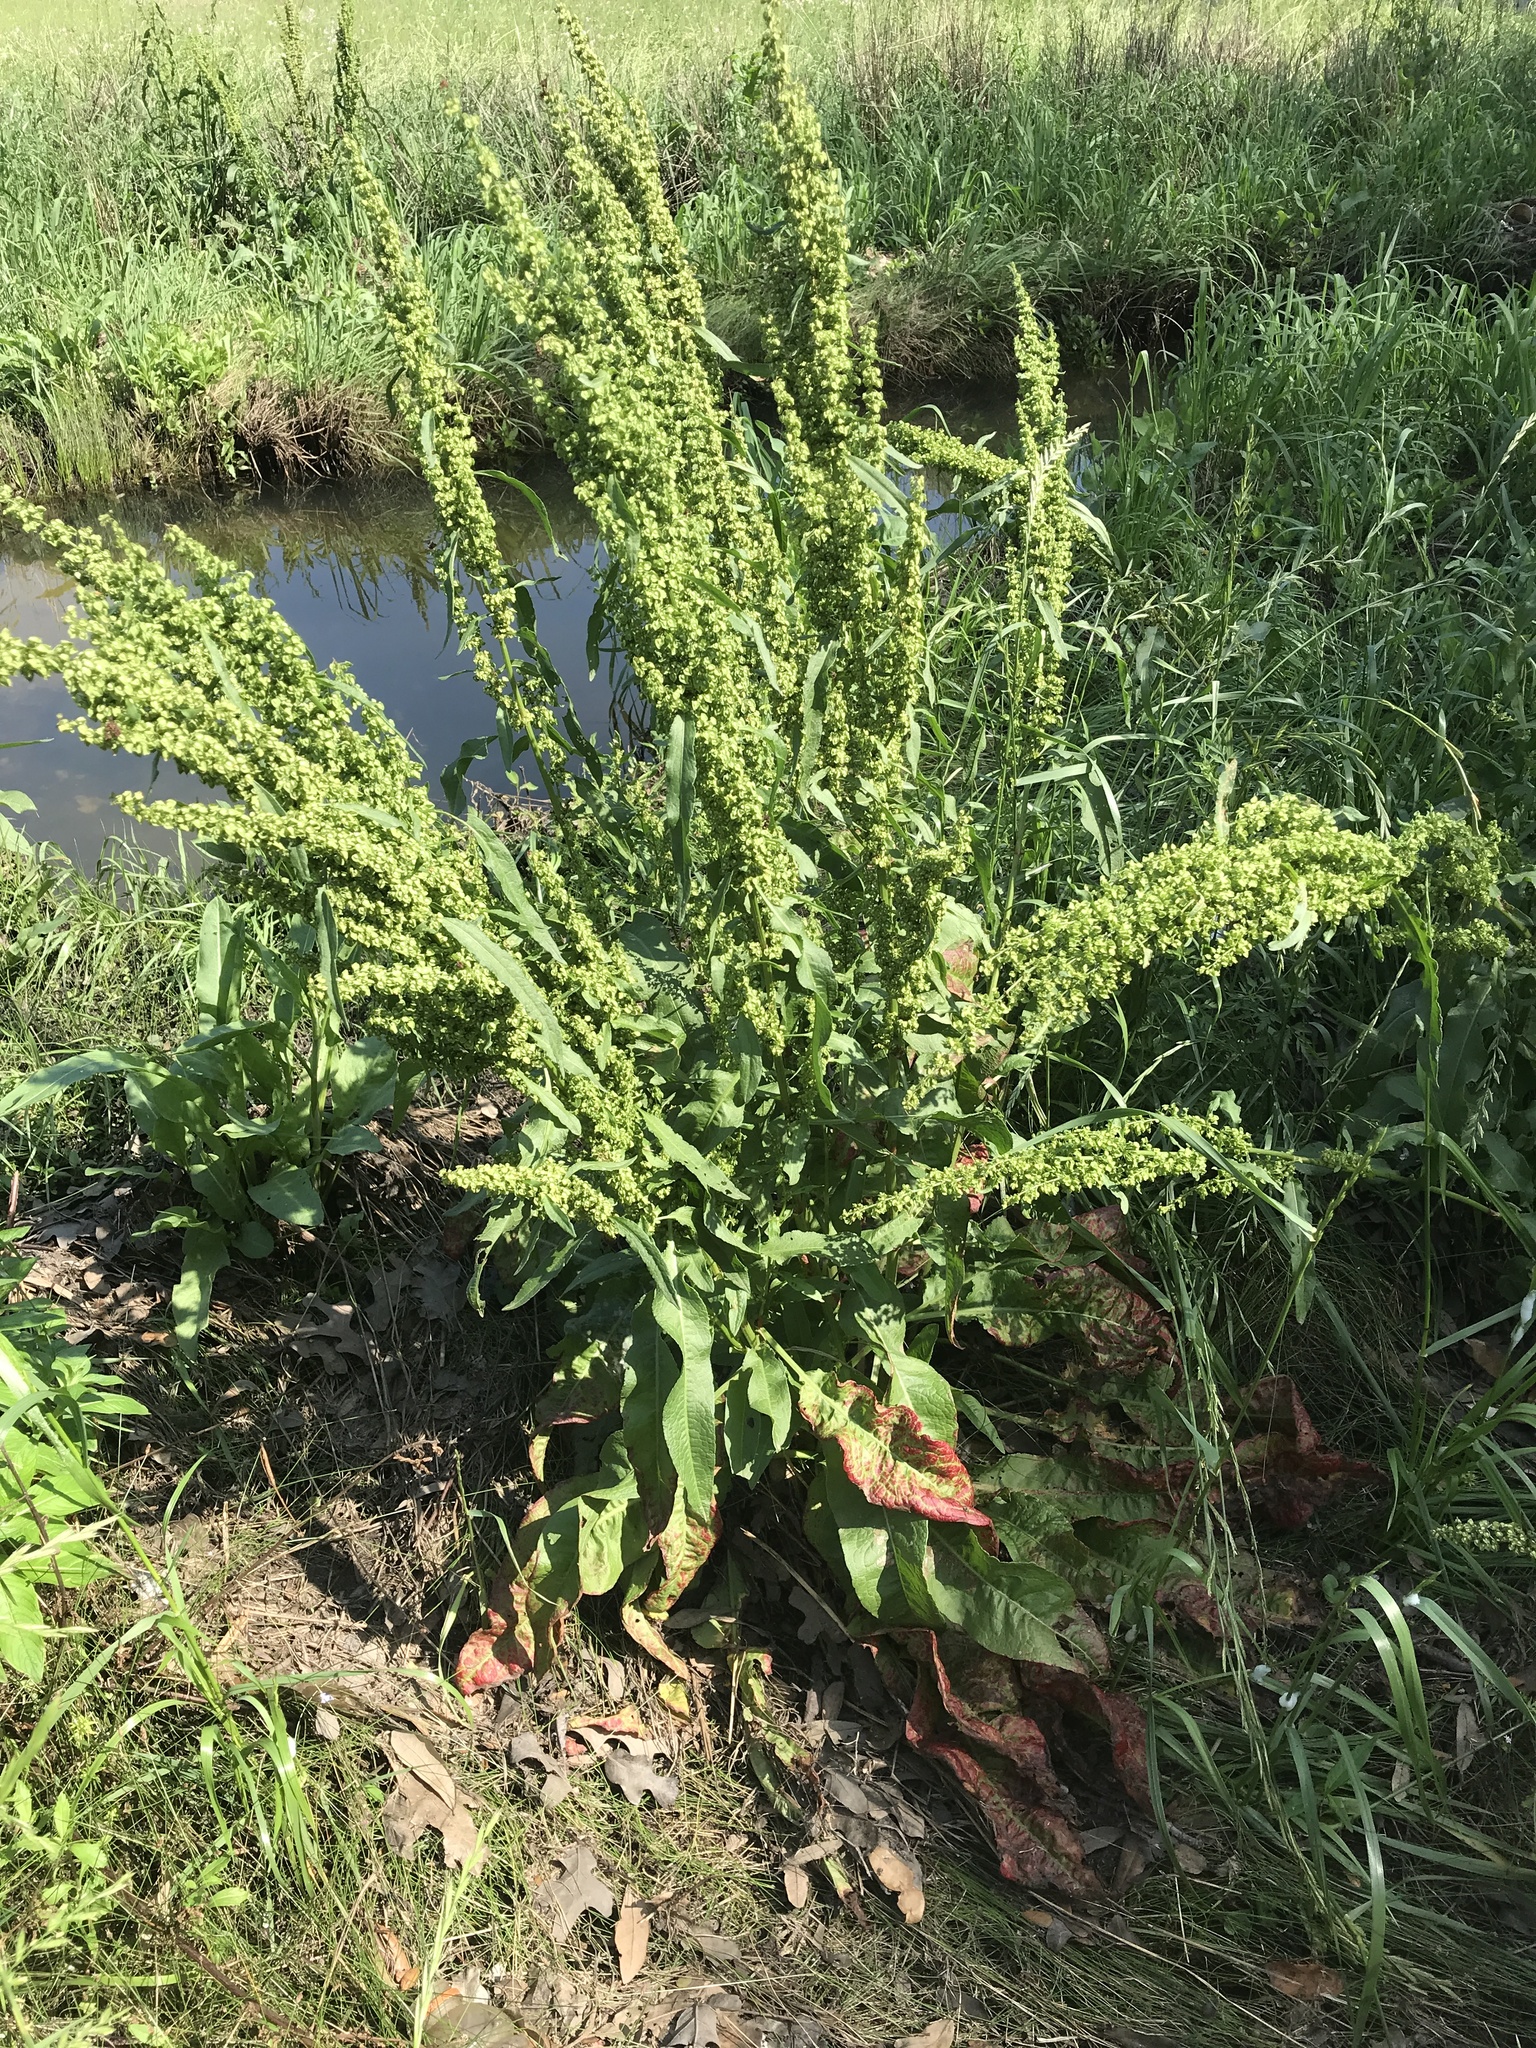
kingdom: Plantae
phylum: Tracheophyta
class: Magnoliopsida
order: Caryophyllales
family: Polygonaceae
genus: Rumex
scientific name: Rumex crispus
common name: Curled dock
